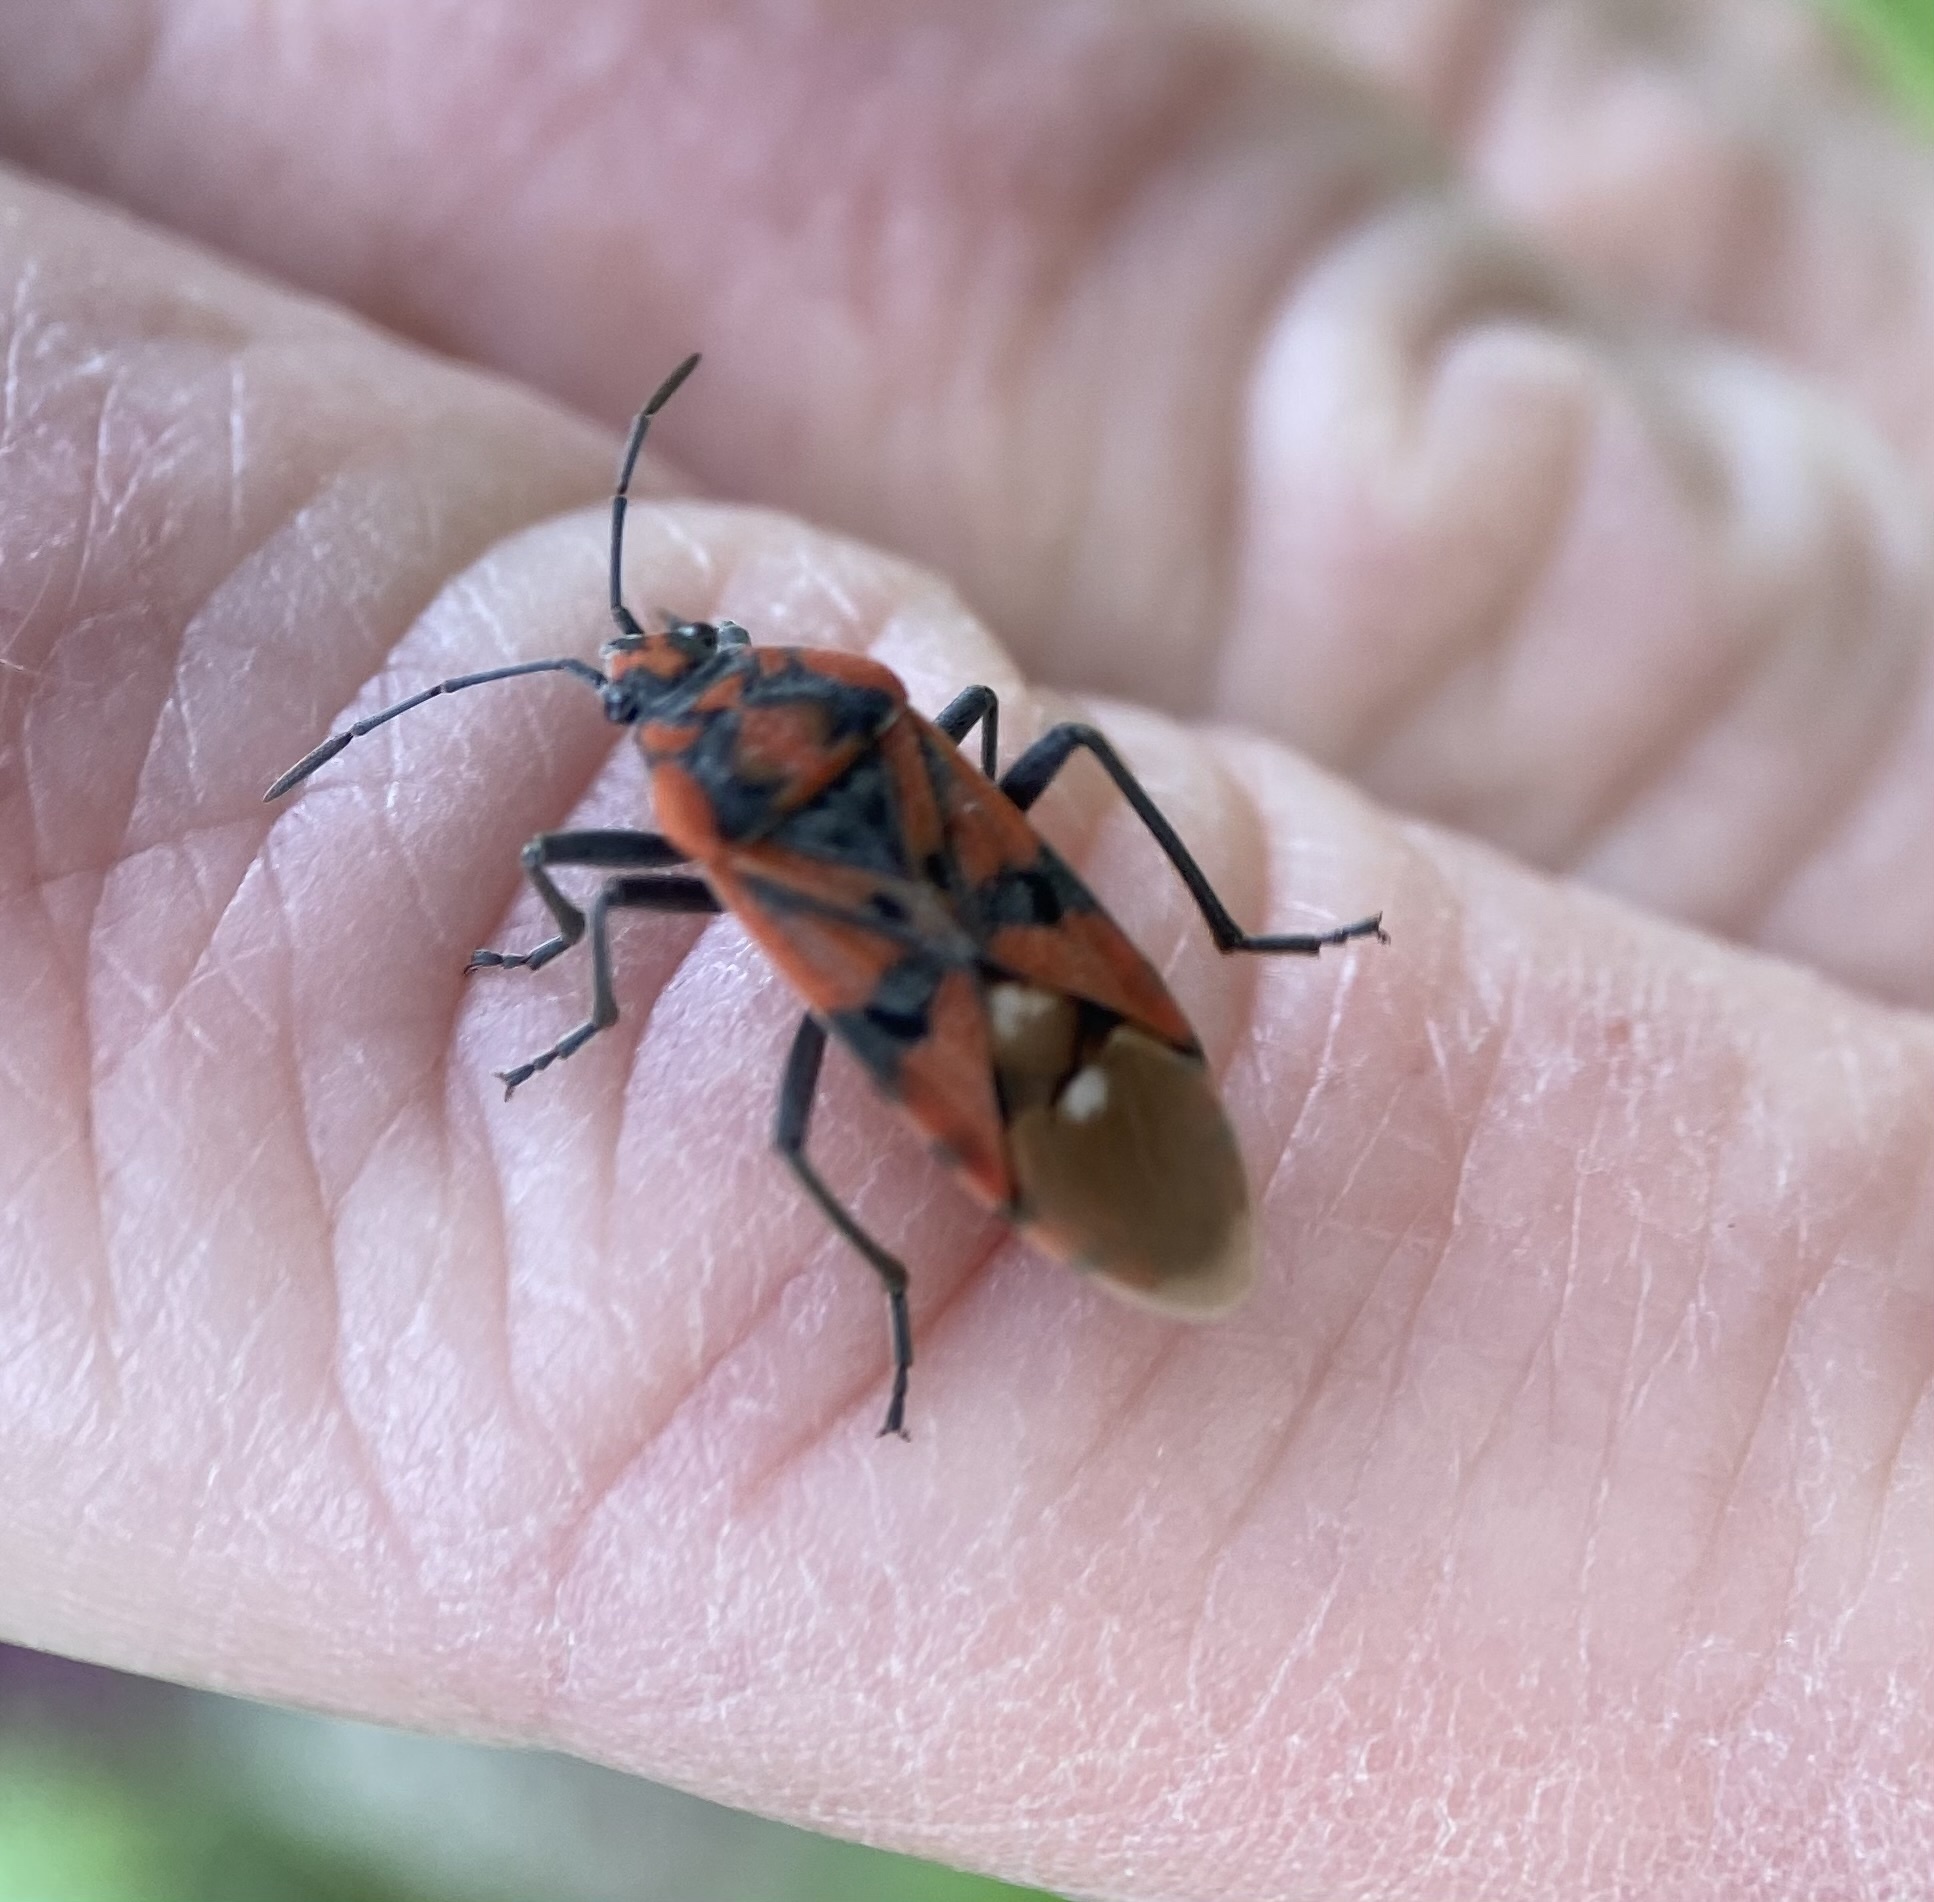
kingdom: Animalia
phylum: Arthropoda
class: Insecta
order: Hemiptera
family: Lygaeidae
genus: Spilostethus
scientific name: Spilostethus pandurus
